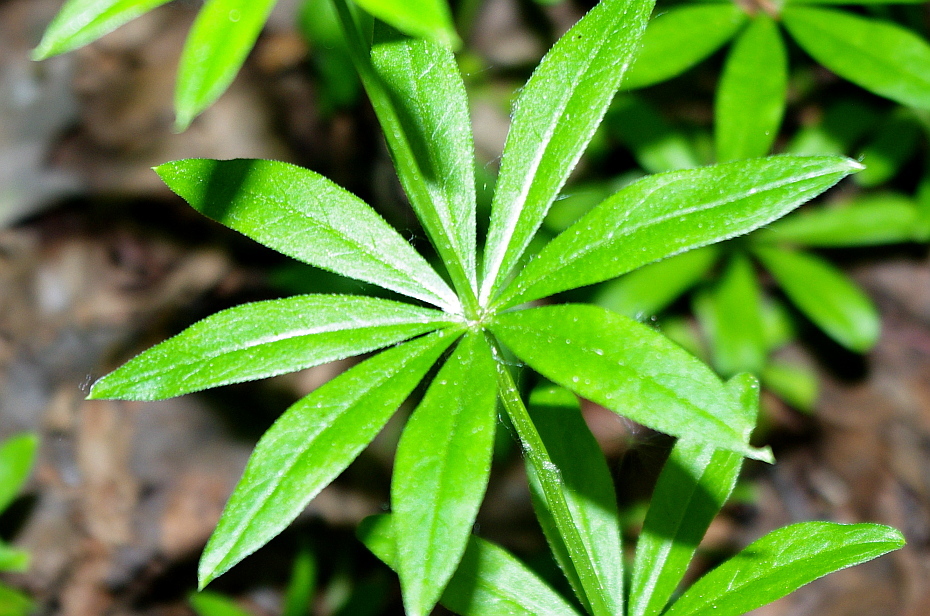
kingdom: Plantae
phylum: Tracheophyta
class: Magnoliopsida
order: Gentianales
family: Rubiaceae
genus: Galium
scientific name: Galium odoratum
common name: Sweet woodruff
